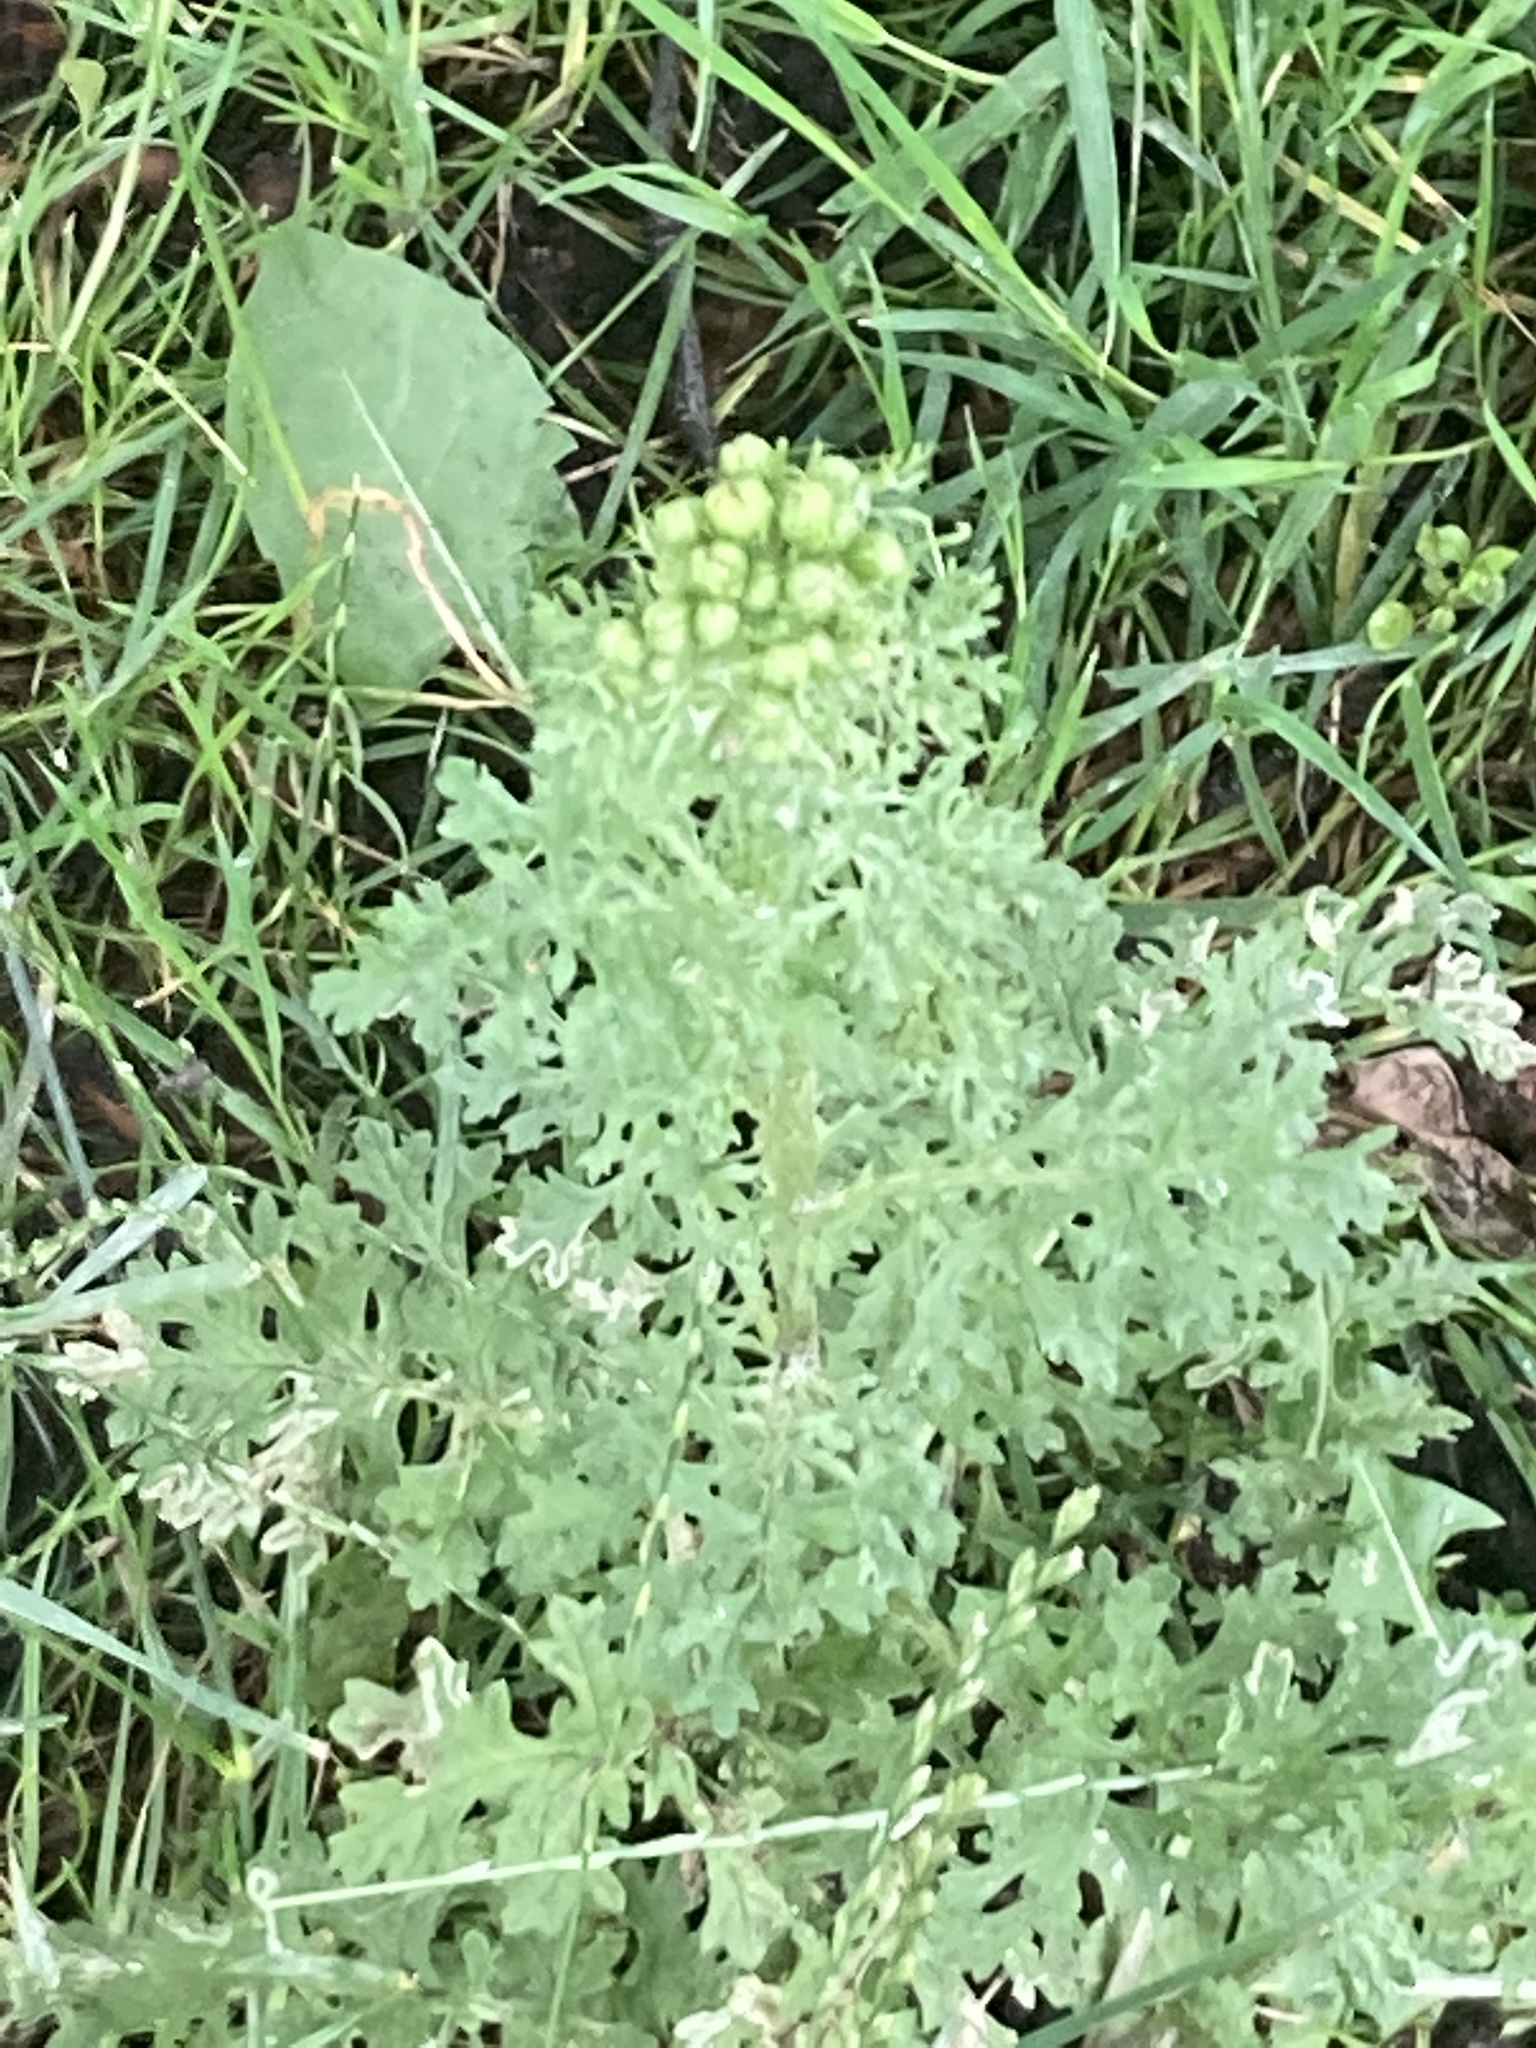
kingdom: Plantae
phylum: Tracheophyta
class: Magnoliopsida
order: Asterales
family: Asteraceae
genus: Jacobaea
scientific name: Jacobaea vulgaris
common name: Stinking willie
